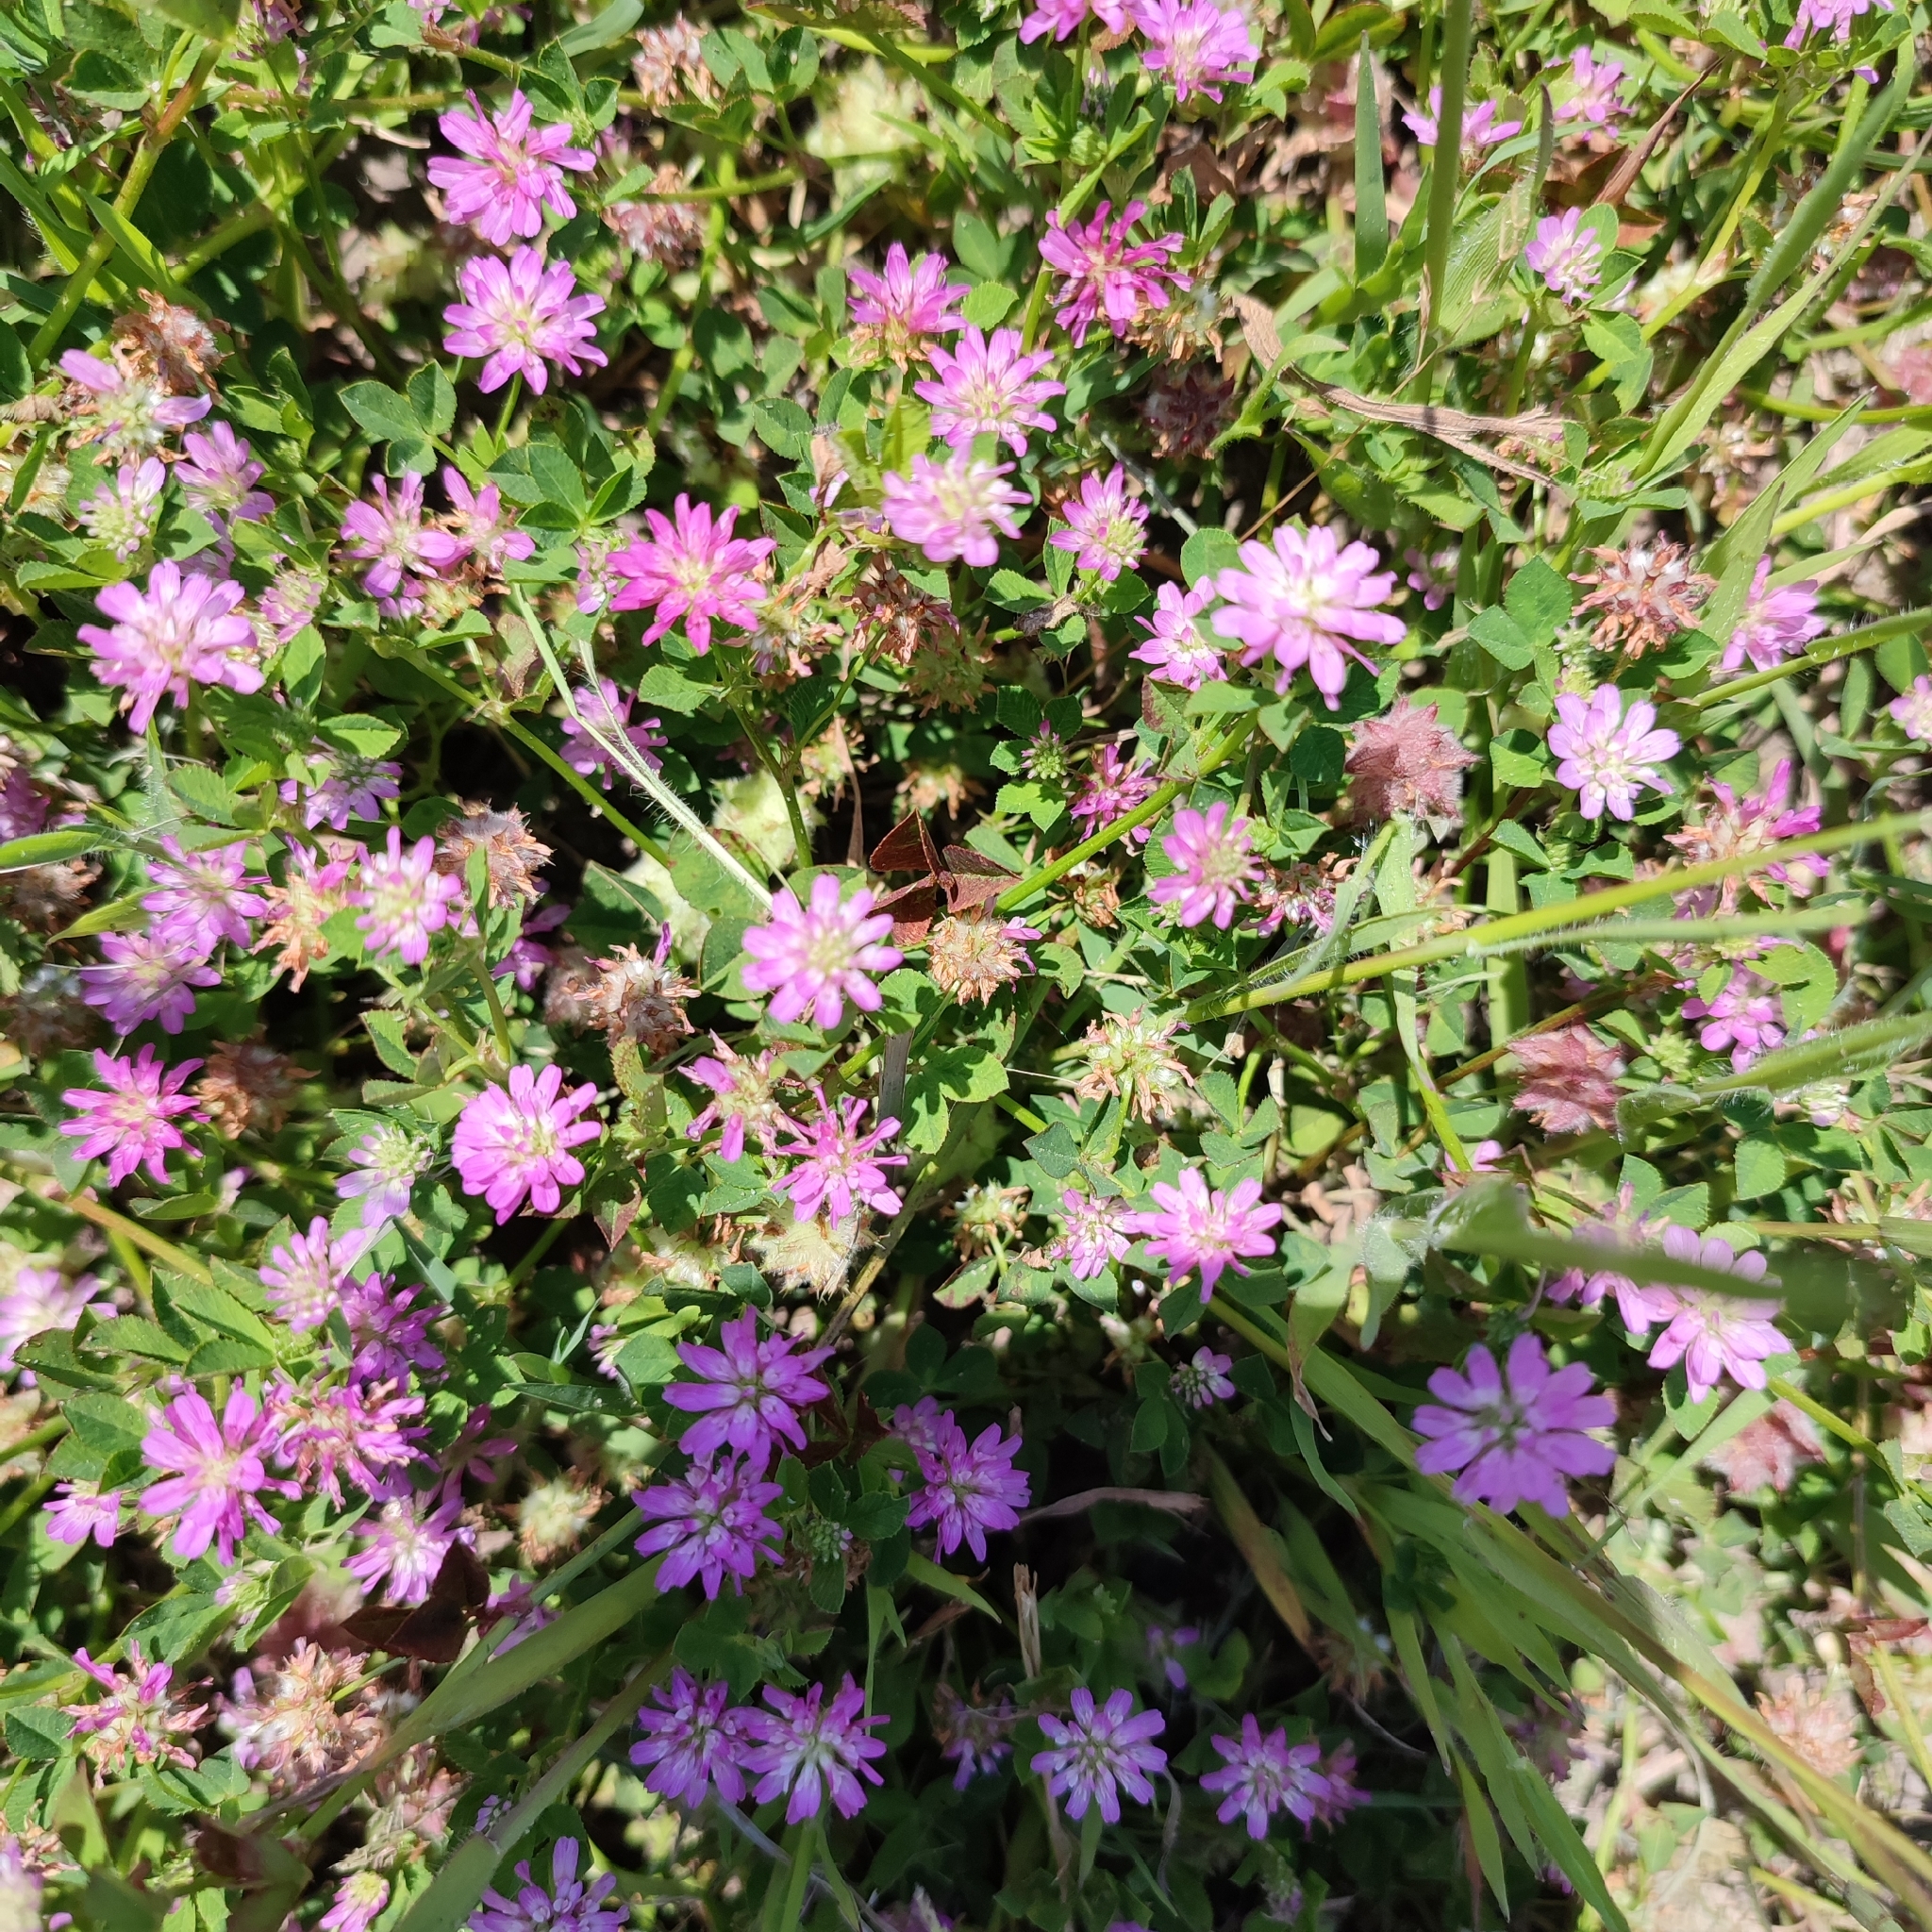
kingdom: Plantae
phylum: Tracheophyta
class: Magnoliopsida
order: Fabales
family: Fabaceae
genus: Trifolium
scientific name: Trifolium resupinatum
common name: Reversed clover
